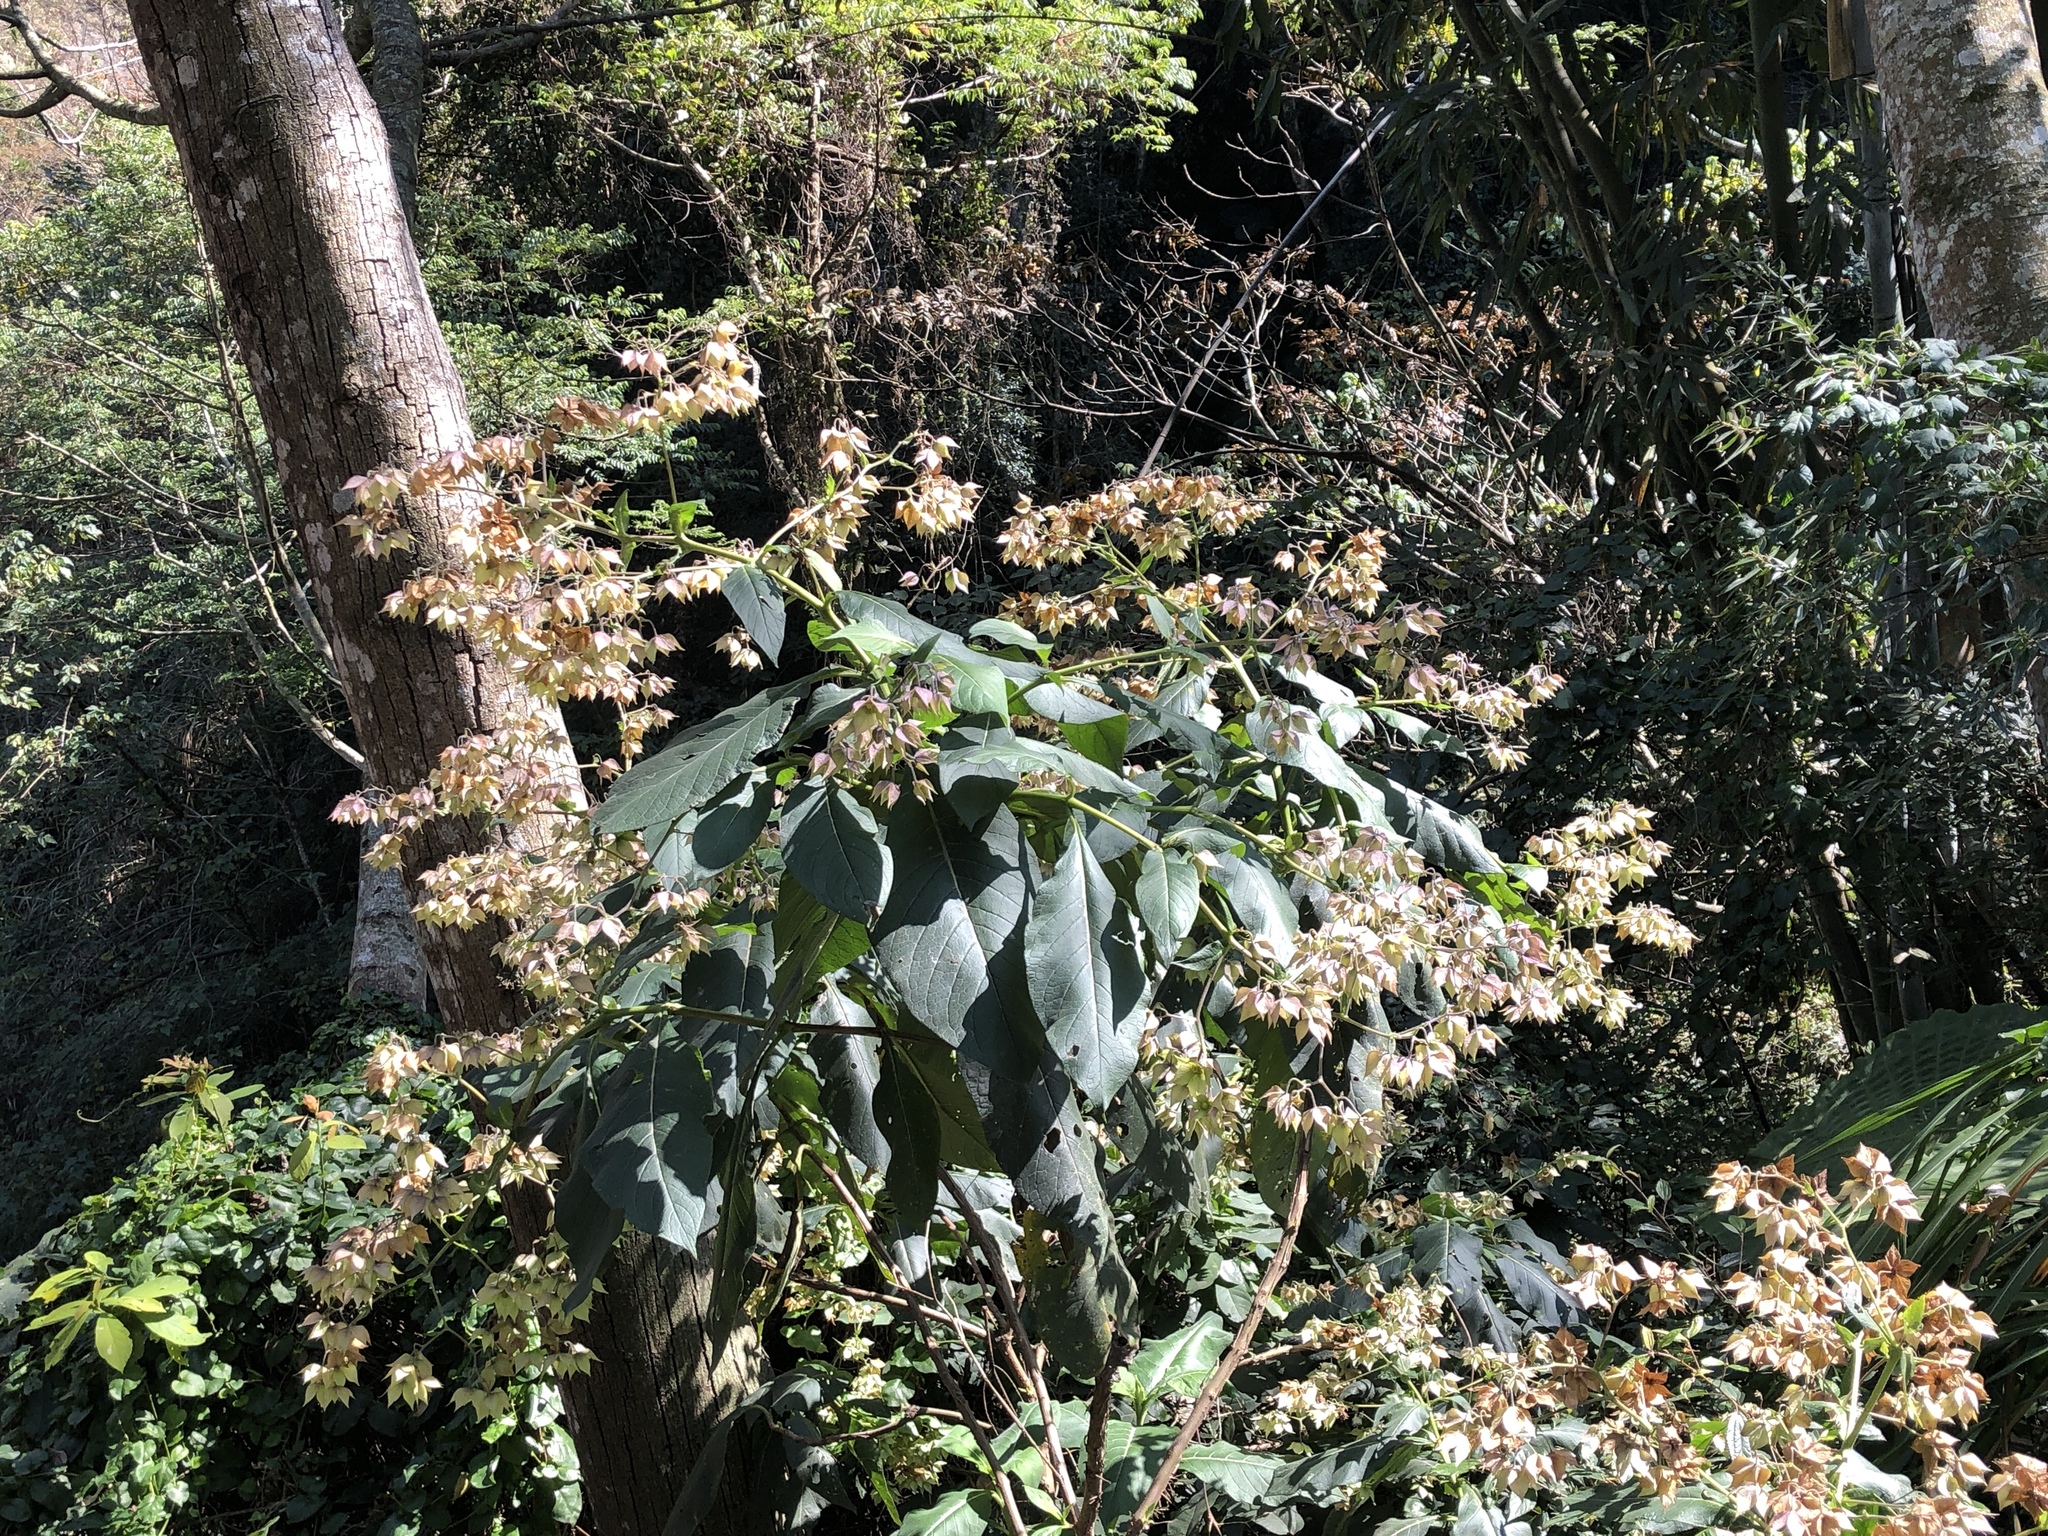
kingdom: Plantae
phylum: Tracheophyta
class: Magnoliopsida
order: Boraginales
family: Boraginaceae
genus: Trichodesma
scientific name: Trichodesma calycosum
